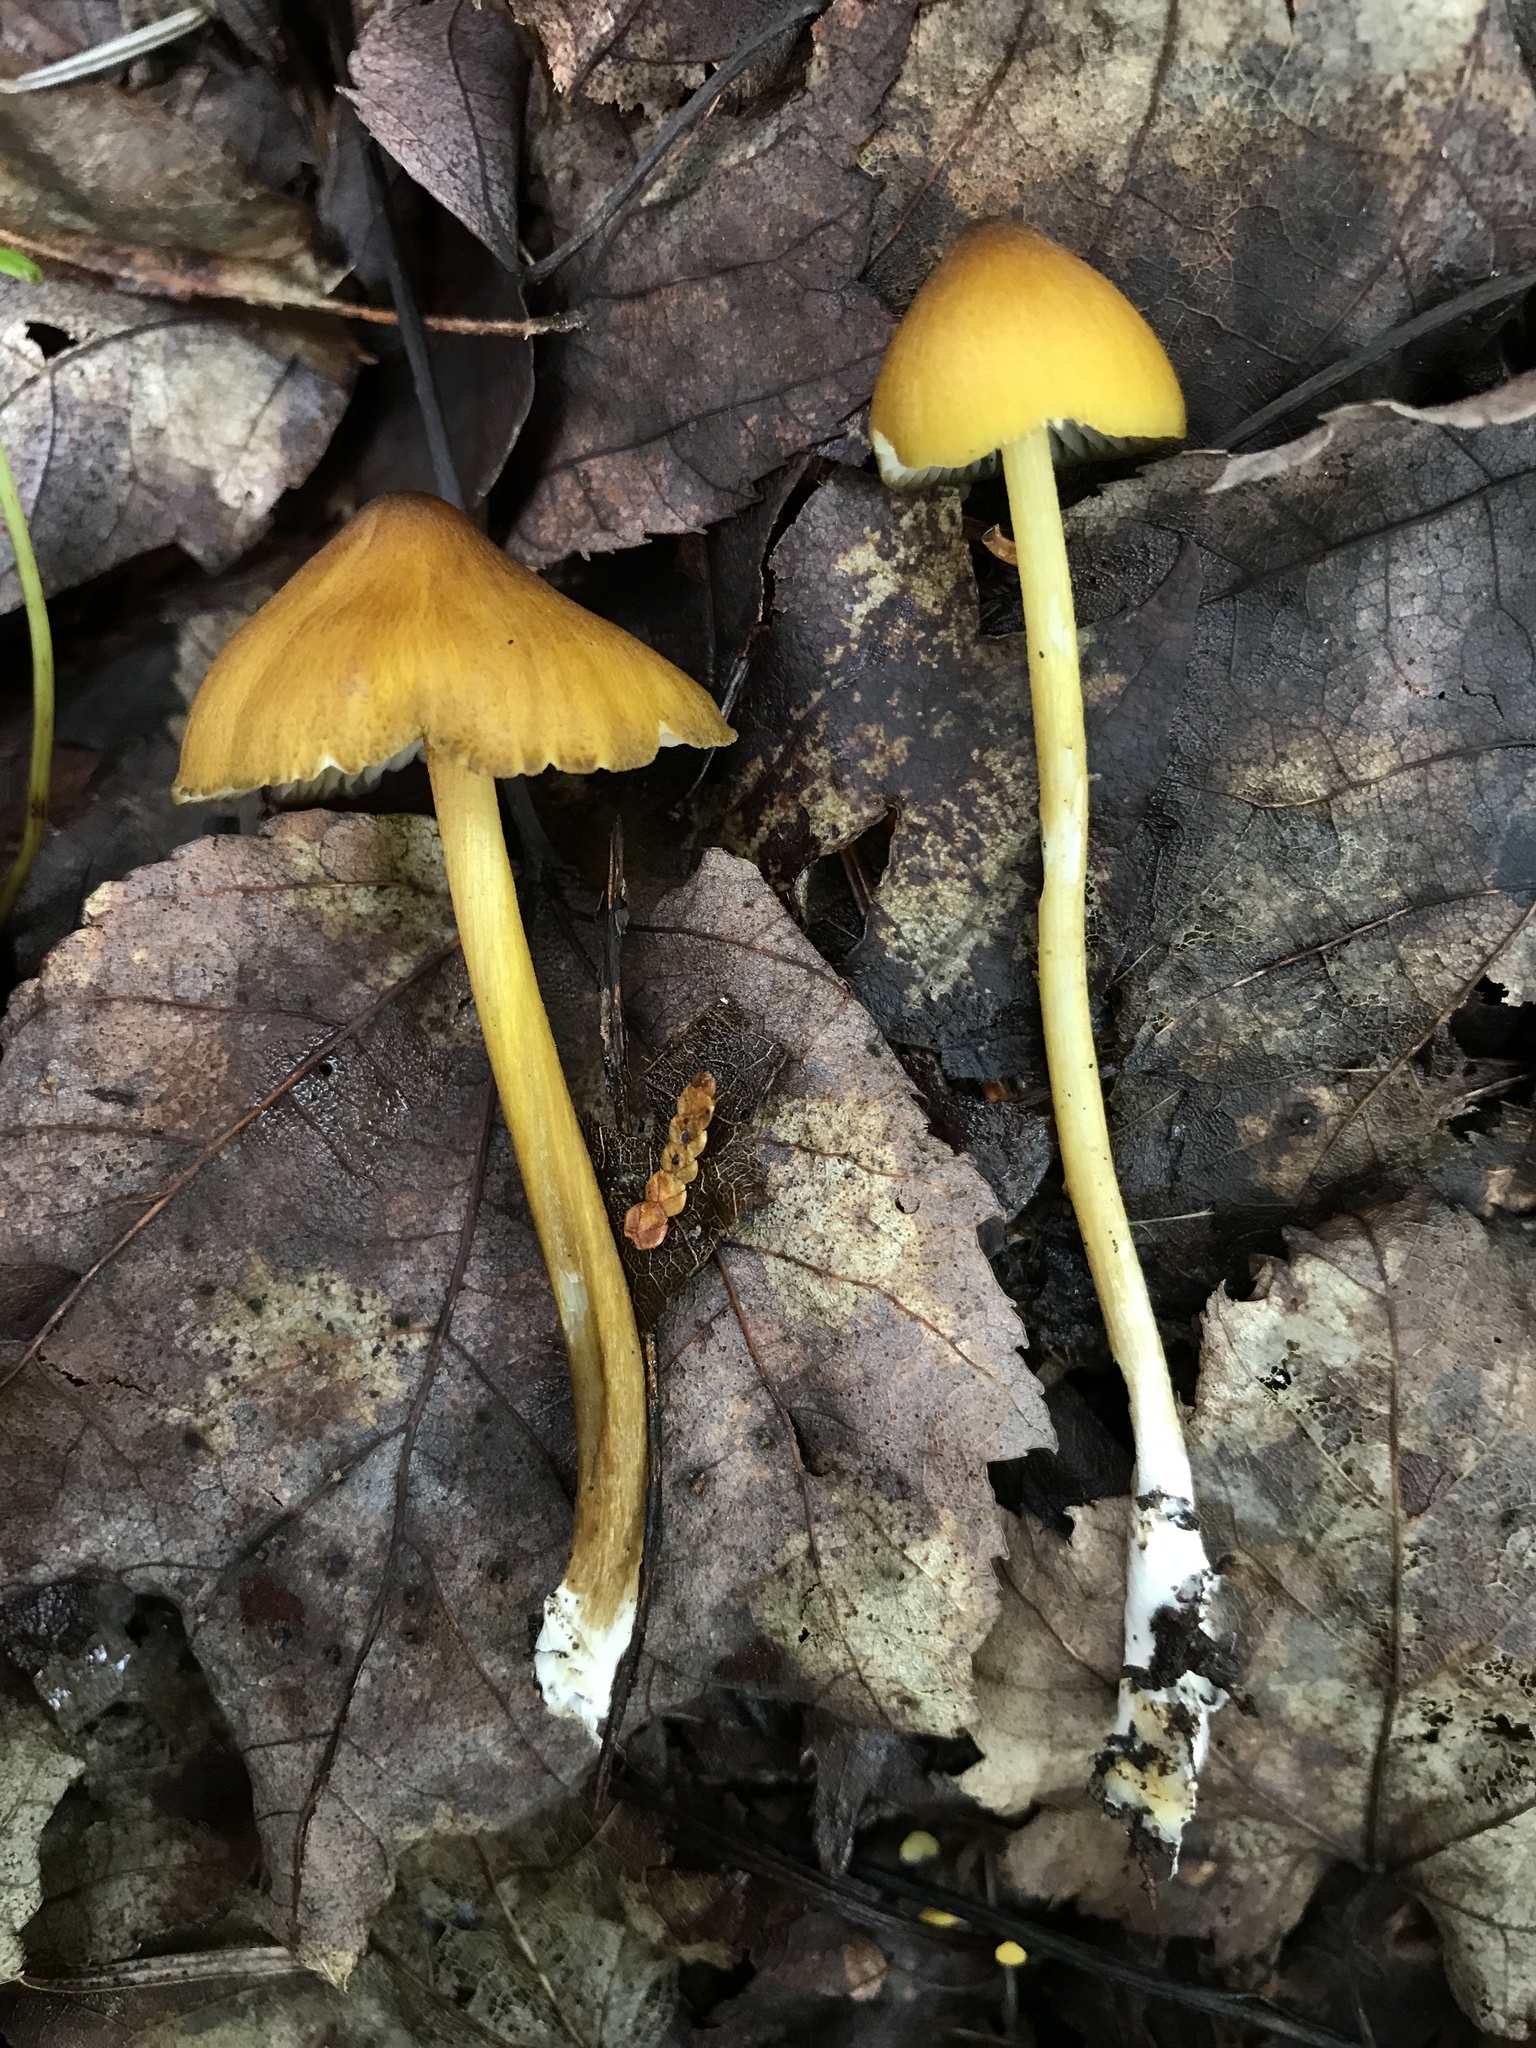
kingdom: Fungi
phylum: Basidiomycota
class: Agaricomycetes
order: Agaricales
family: Entolomataceae
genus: Entoloma
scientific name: Entoloma luteum
